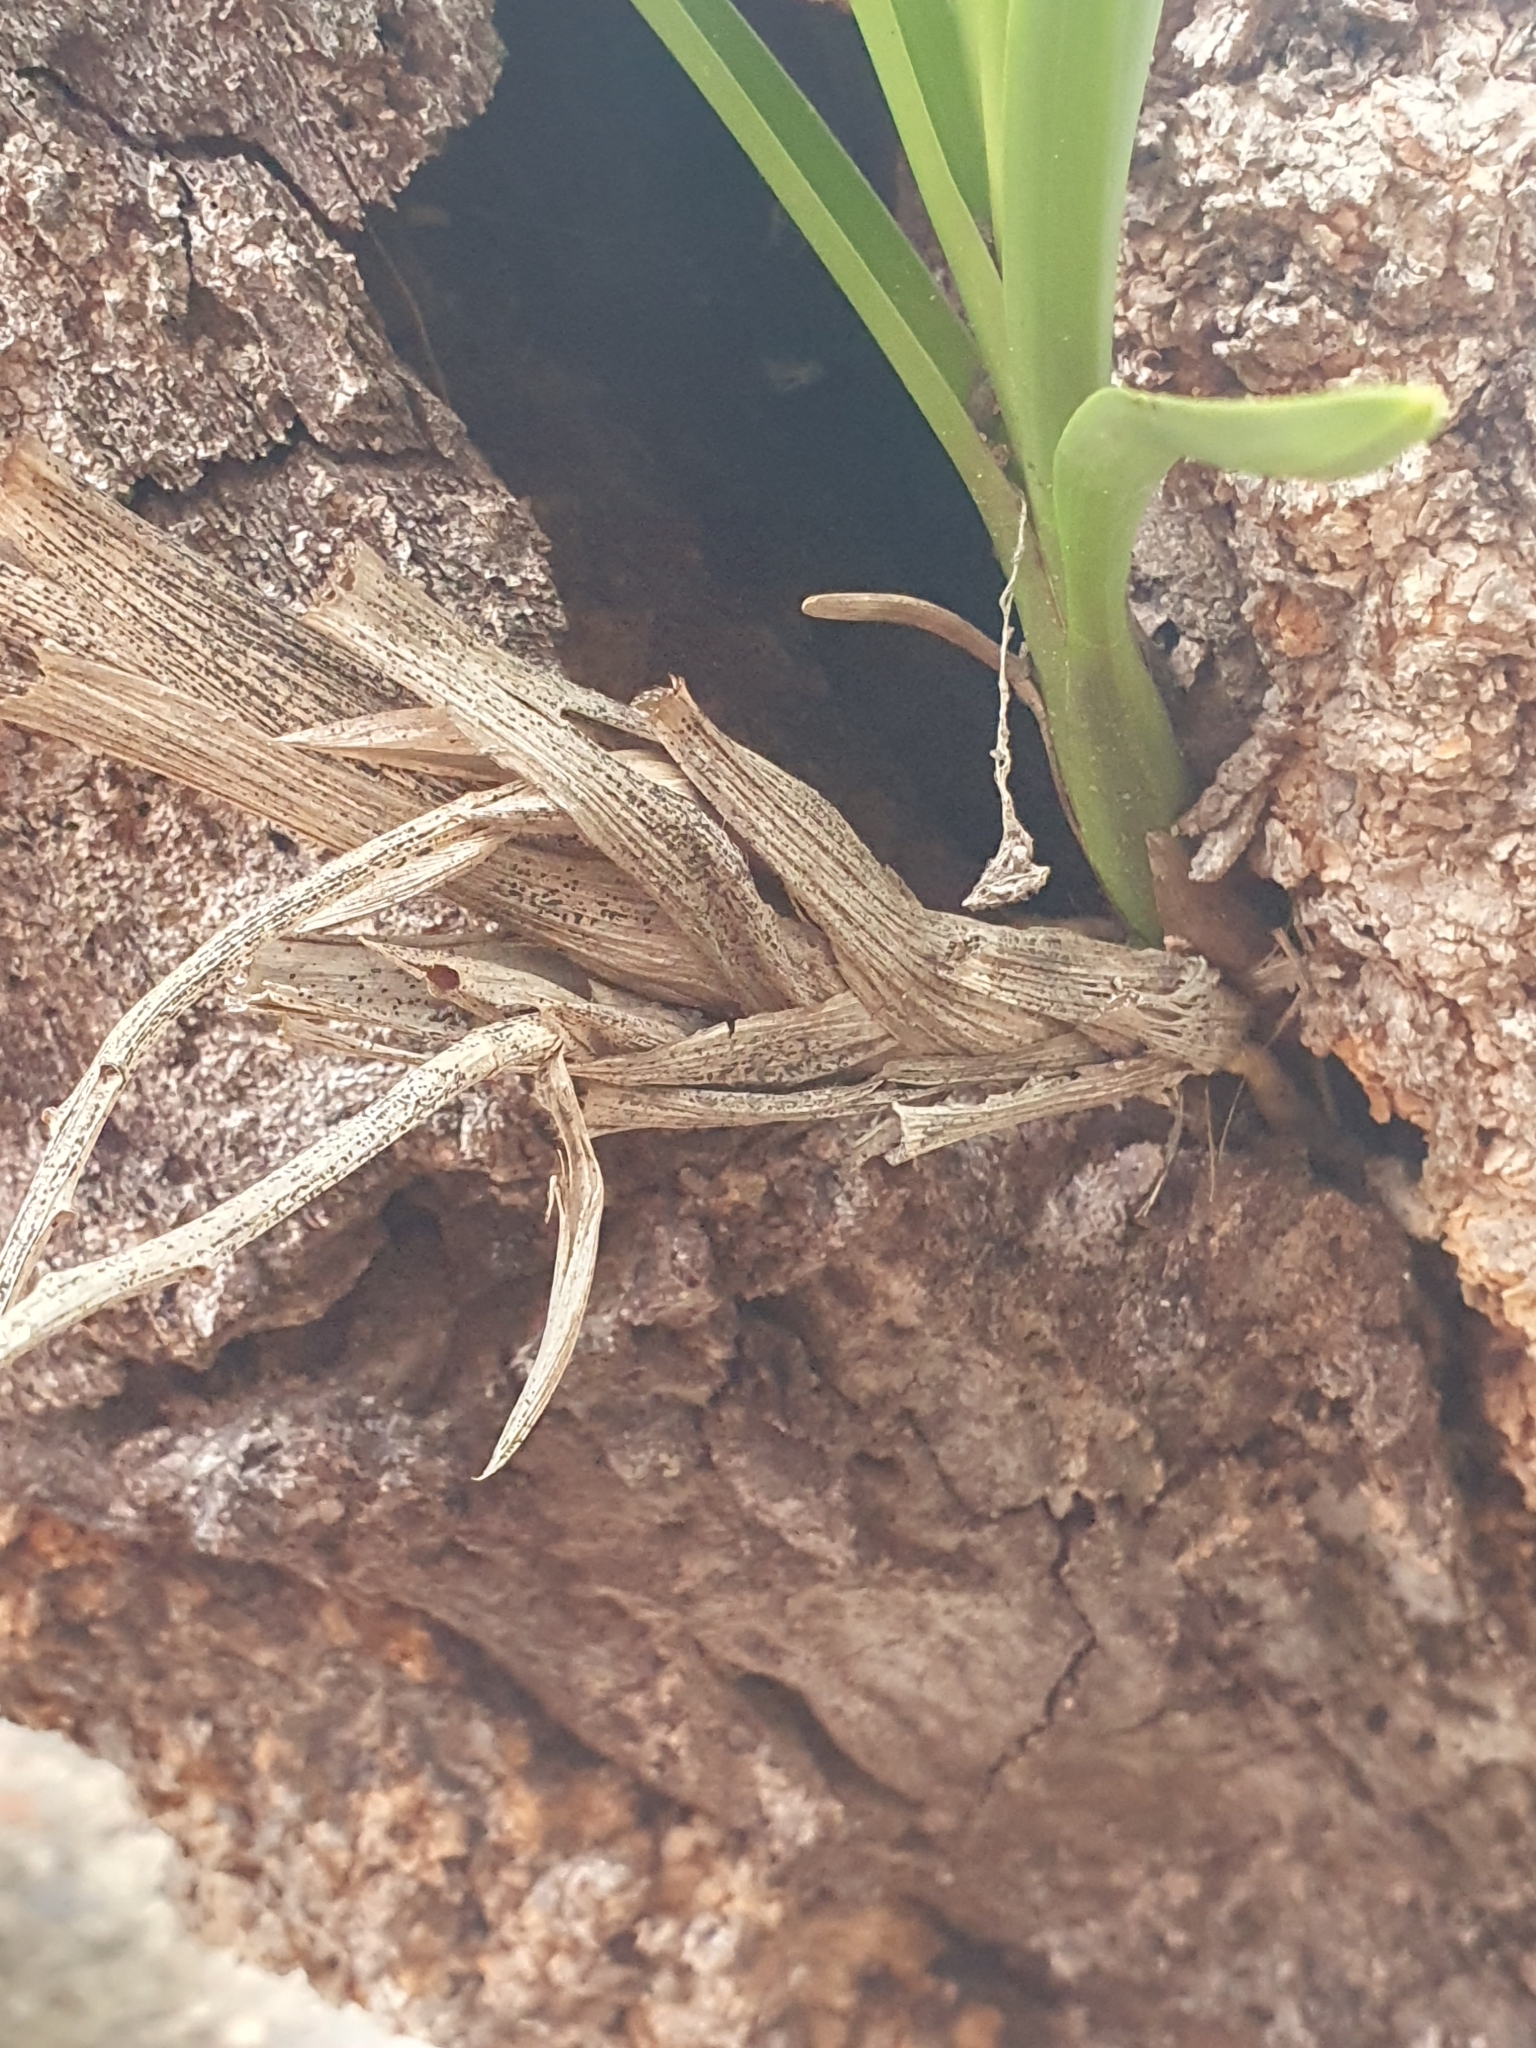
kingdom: Plantae
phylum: Tracheophyta
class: Liliopsida
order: Asparagales
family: Orchidaceae
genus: Cymbidium
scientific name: Cymbidium suave
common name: Snake orchid
